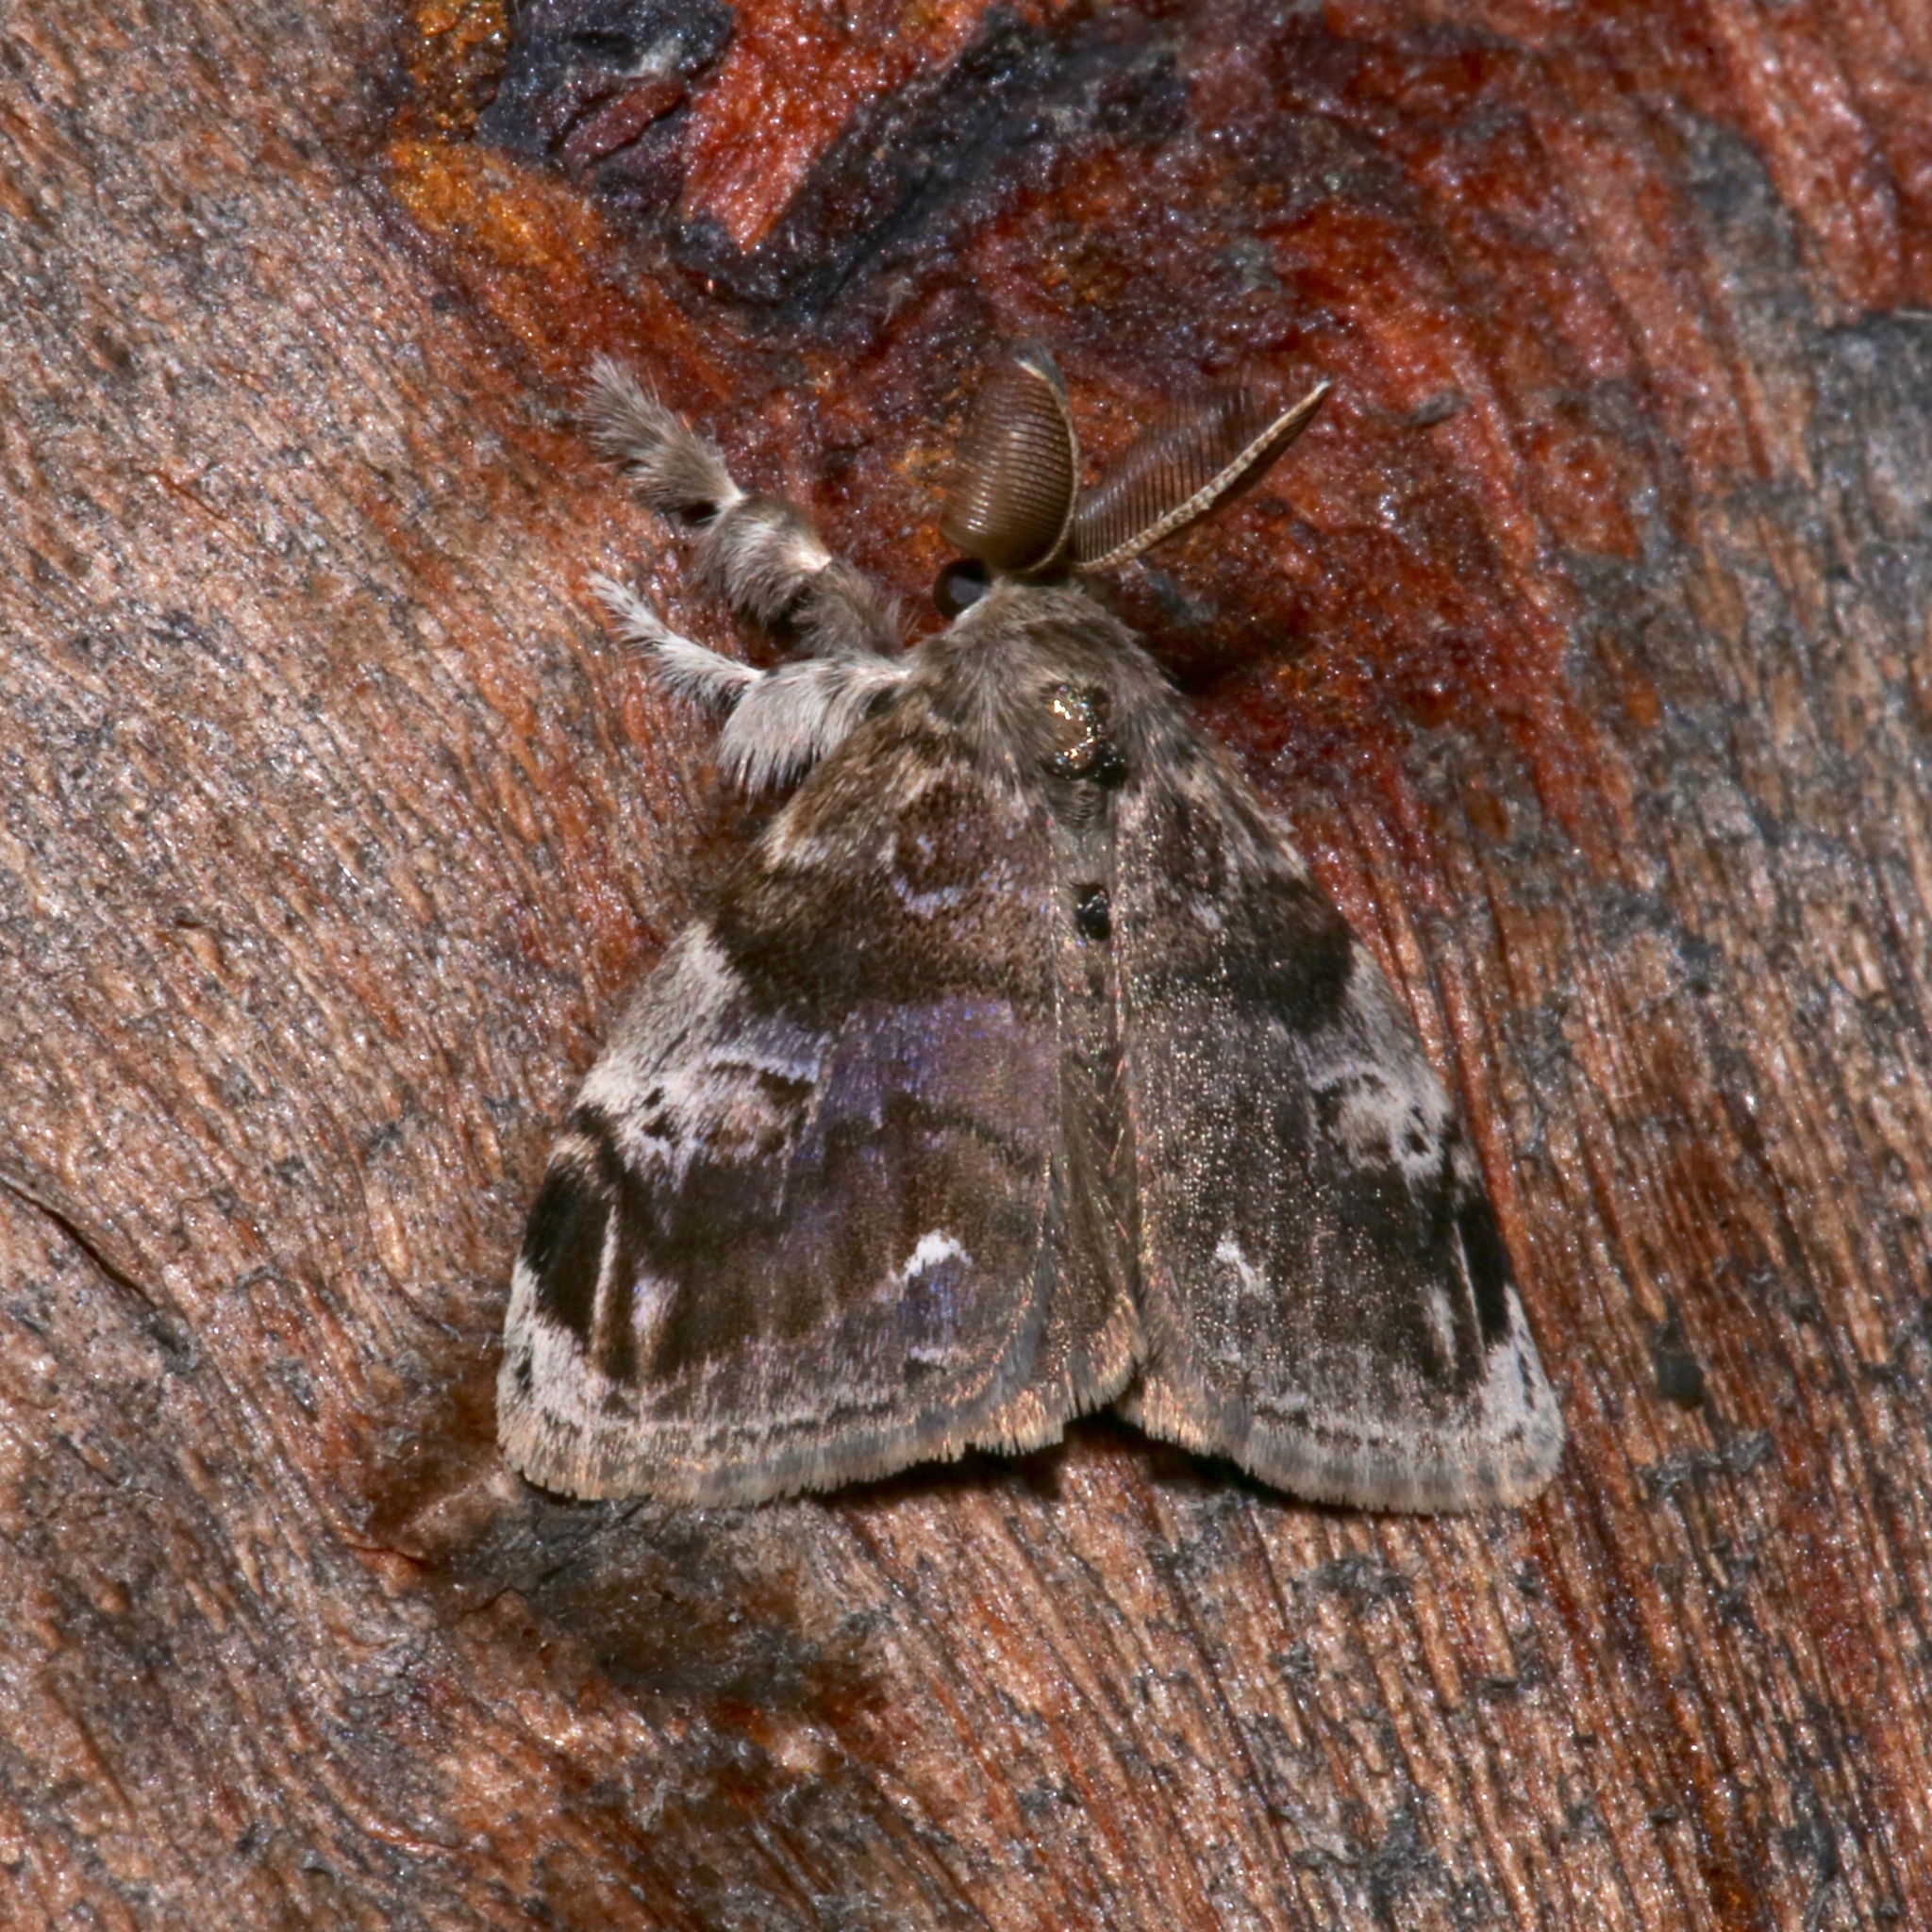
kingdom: Animalia
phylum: Arthropoda
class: Insecta
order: Lepidoptera
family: Erebidae
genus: Orgyia
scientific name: Orgyia definita
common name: Definite tussock moth
